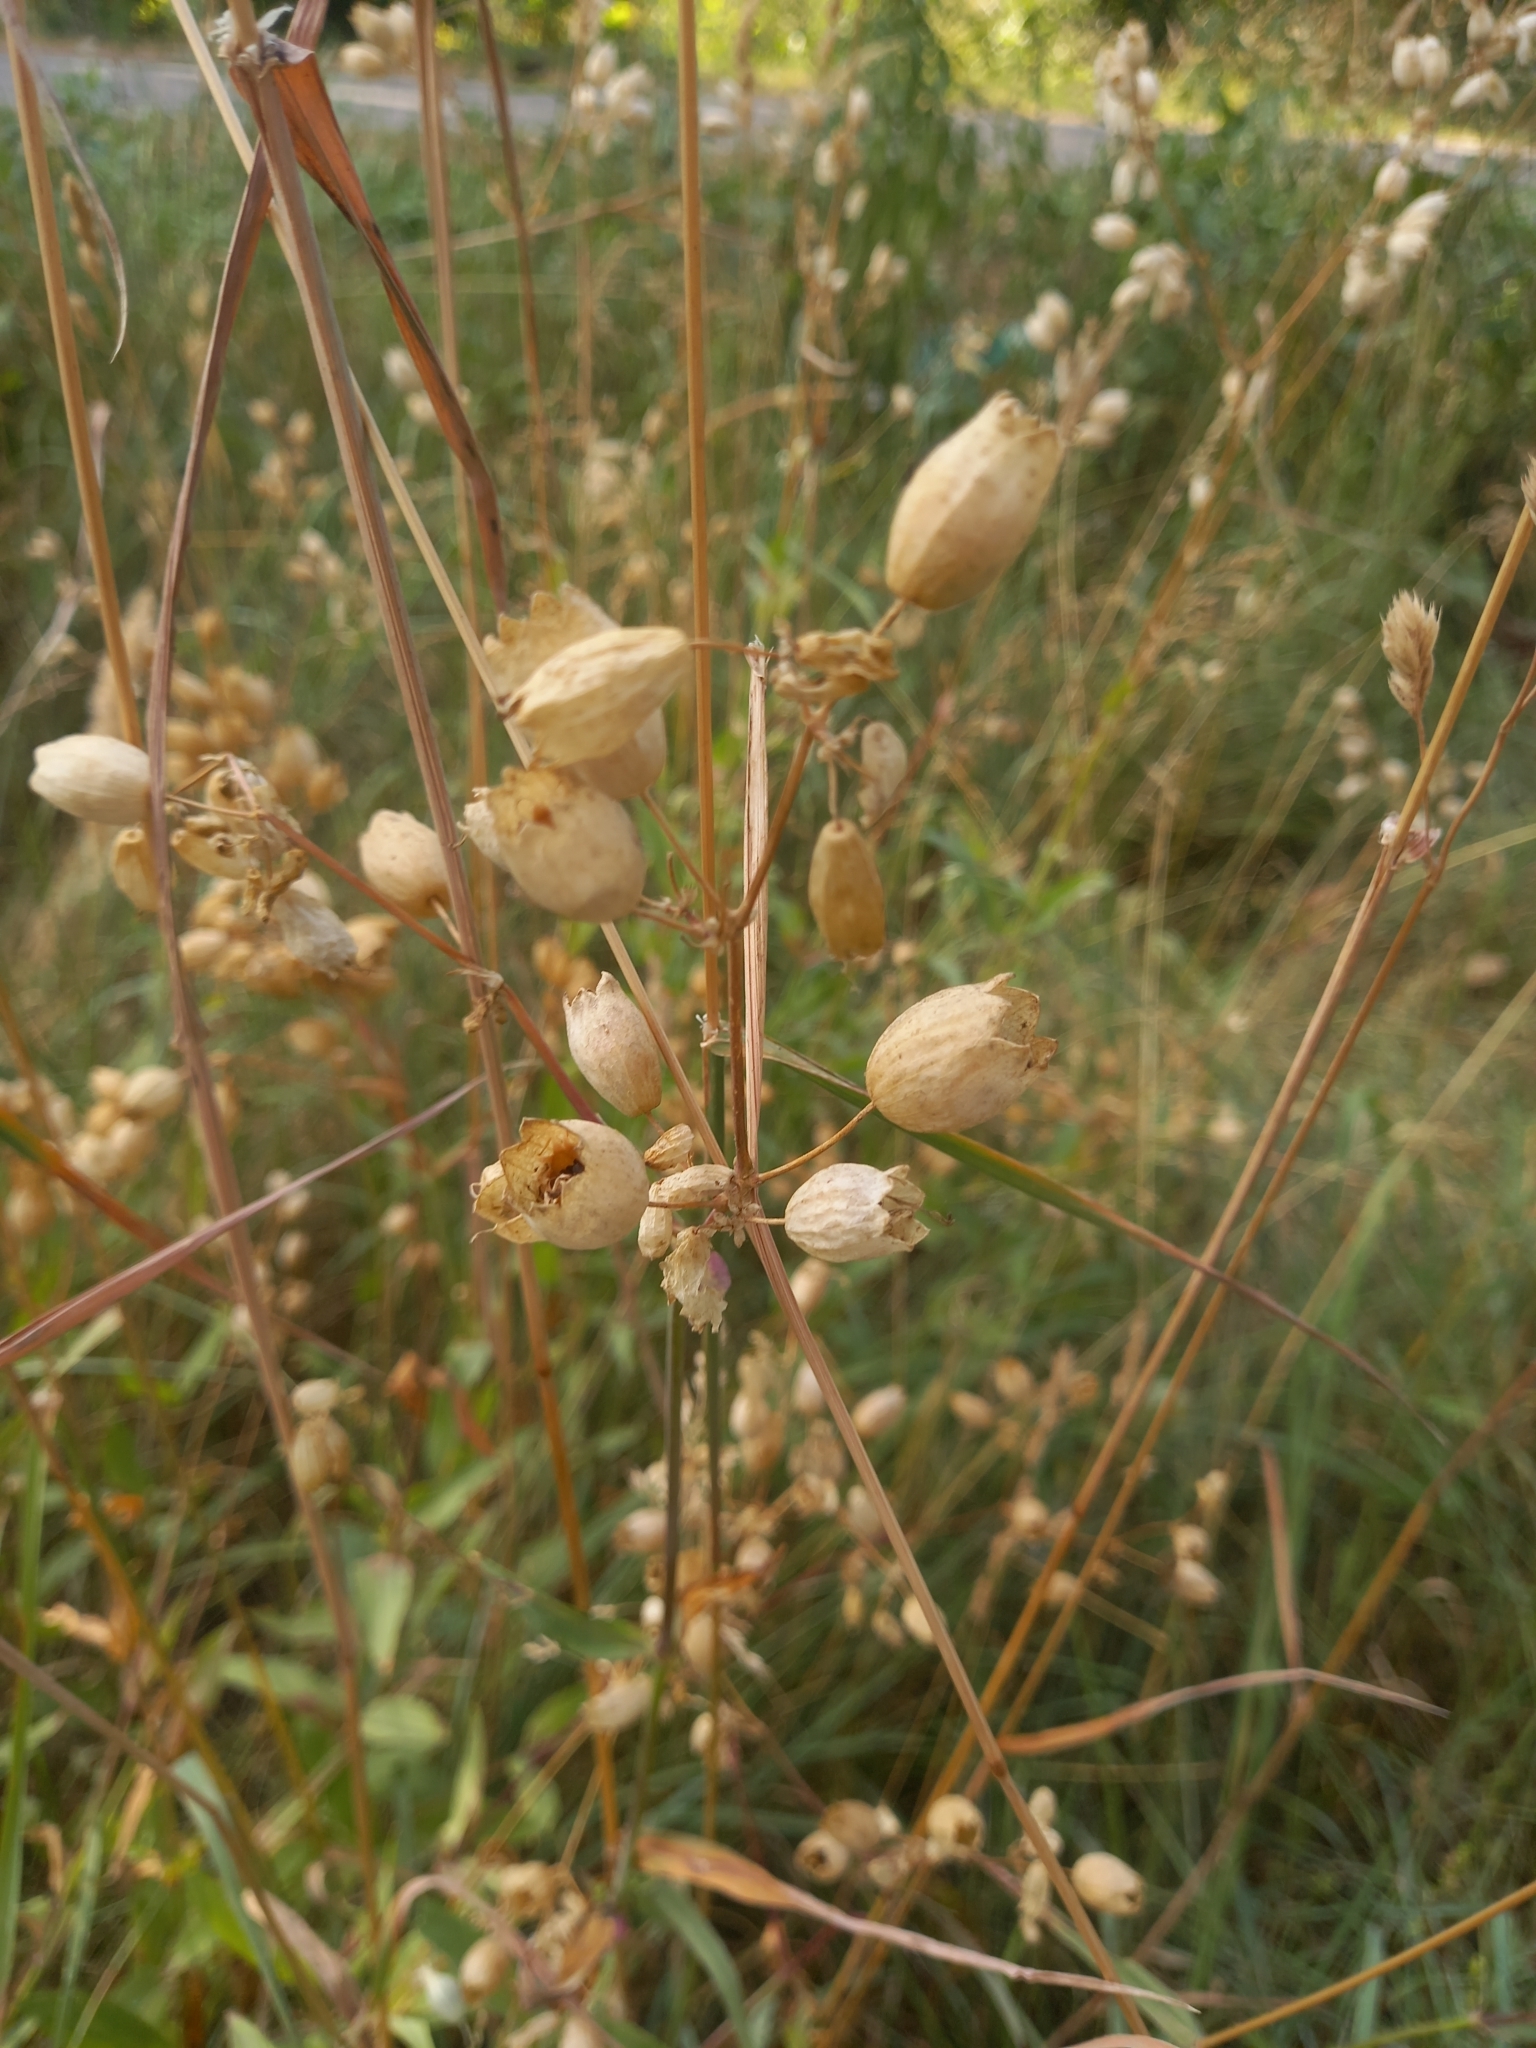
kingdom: Plantae
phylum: Tracheophyta
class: Magnoliopsida
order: Caryophyllales
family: Caryophyllaceae
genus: Silene
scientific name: Silene vulgaris
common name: Bladder campion
